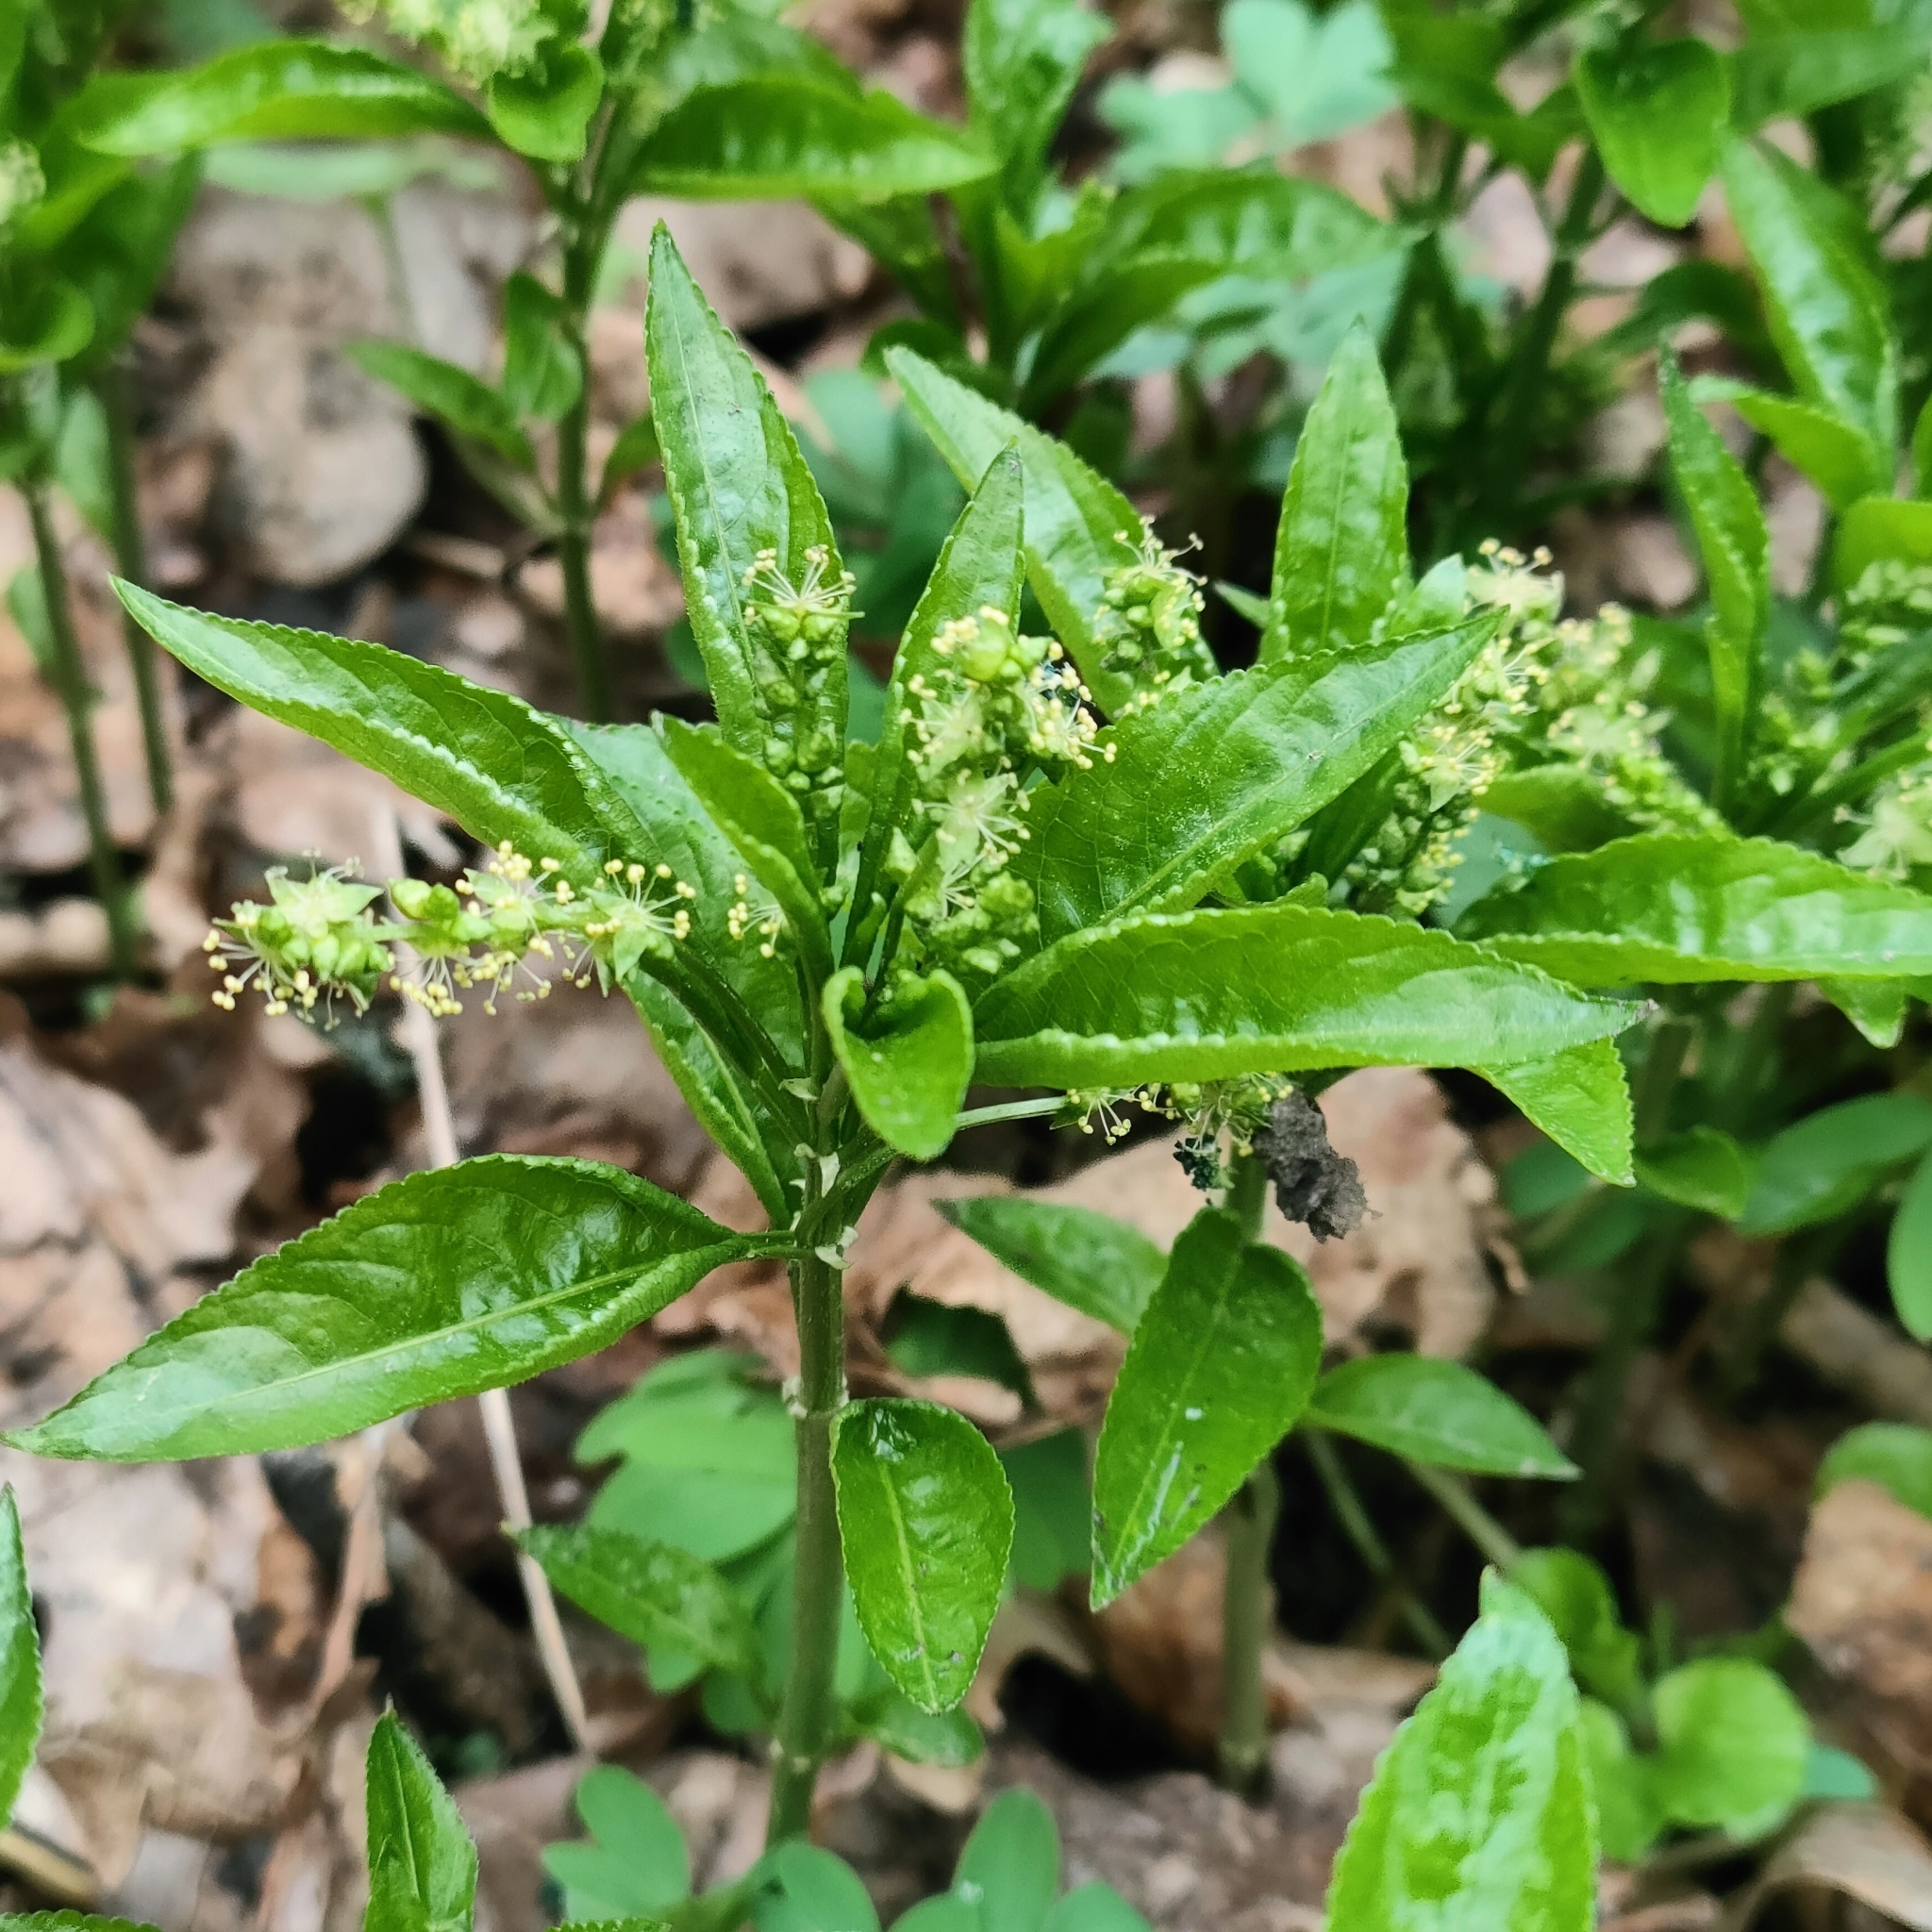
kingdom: Plantae
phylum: Tracheophyta
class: Magnoliopsida
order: Malpighiales
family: Euphorbiaceae
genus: Mercurialis
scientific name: Mercurialis perennis
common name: Dog mercury
